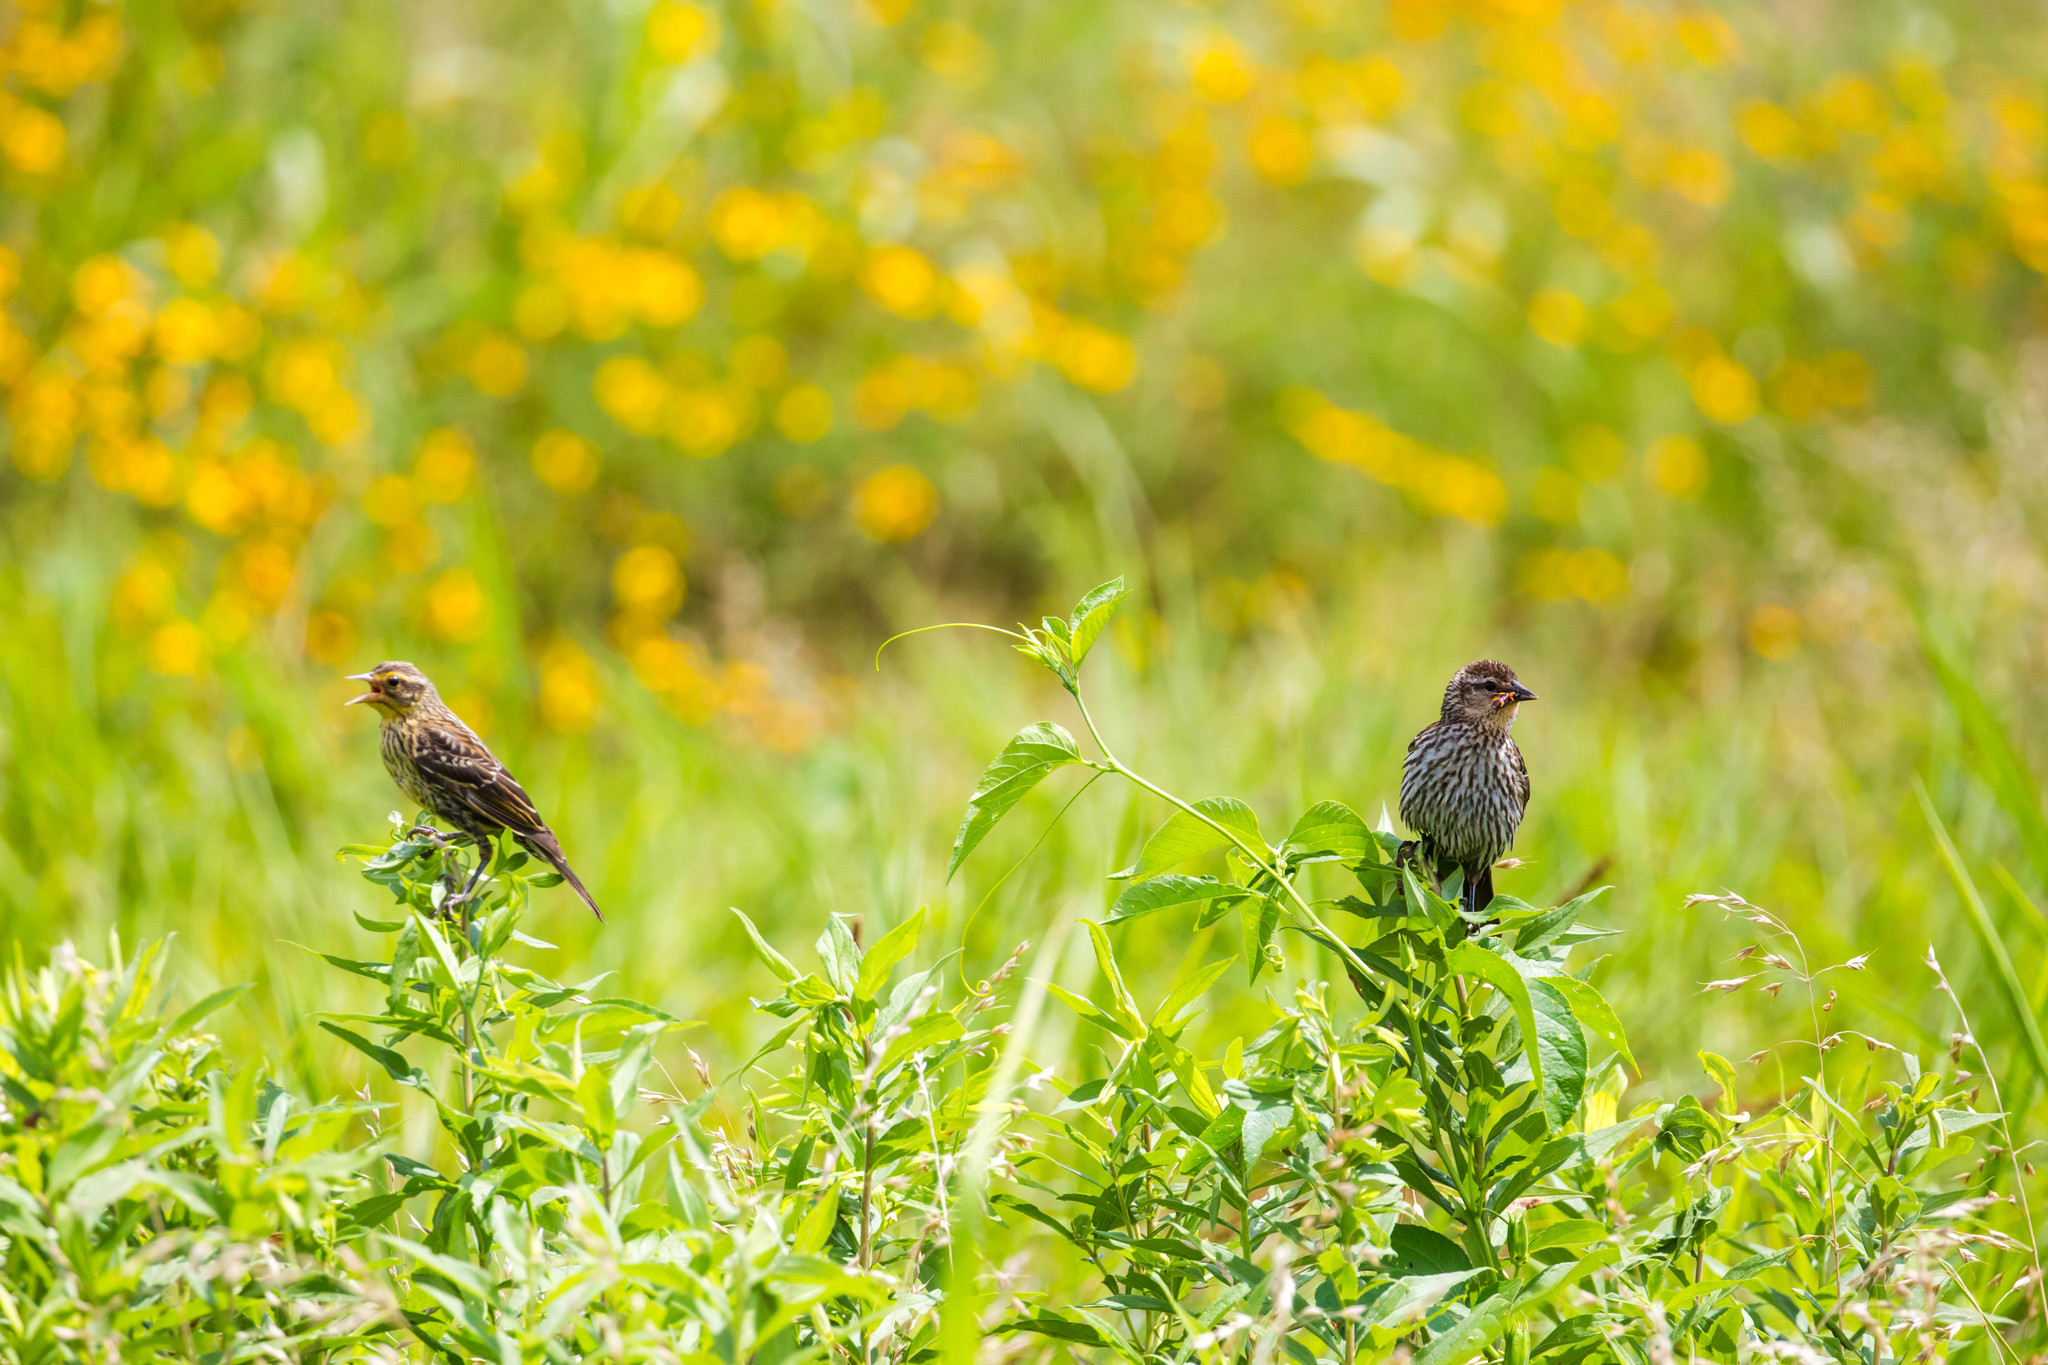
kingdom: Animalia
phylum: Chordata
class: Aves
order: Passeriformes
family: Icteridae
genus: Agelaius
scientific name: Agelaius phoeniceus
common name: Red-winged blackbird
